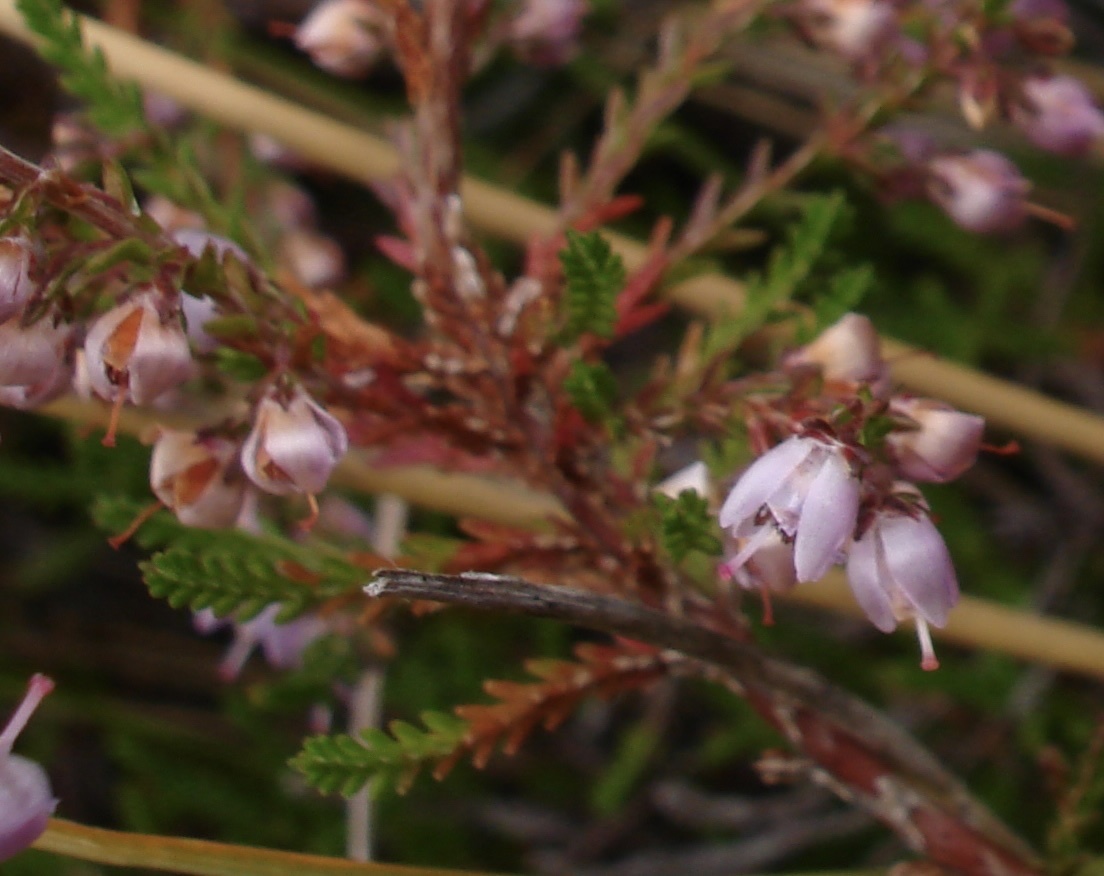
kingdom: Plantae
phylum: Tracheophyta
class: Magnoliopsida
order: Ericales
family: Ericaceae
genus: Calluna
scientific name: Calluna vulgaris
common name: Heather
